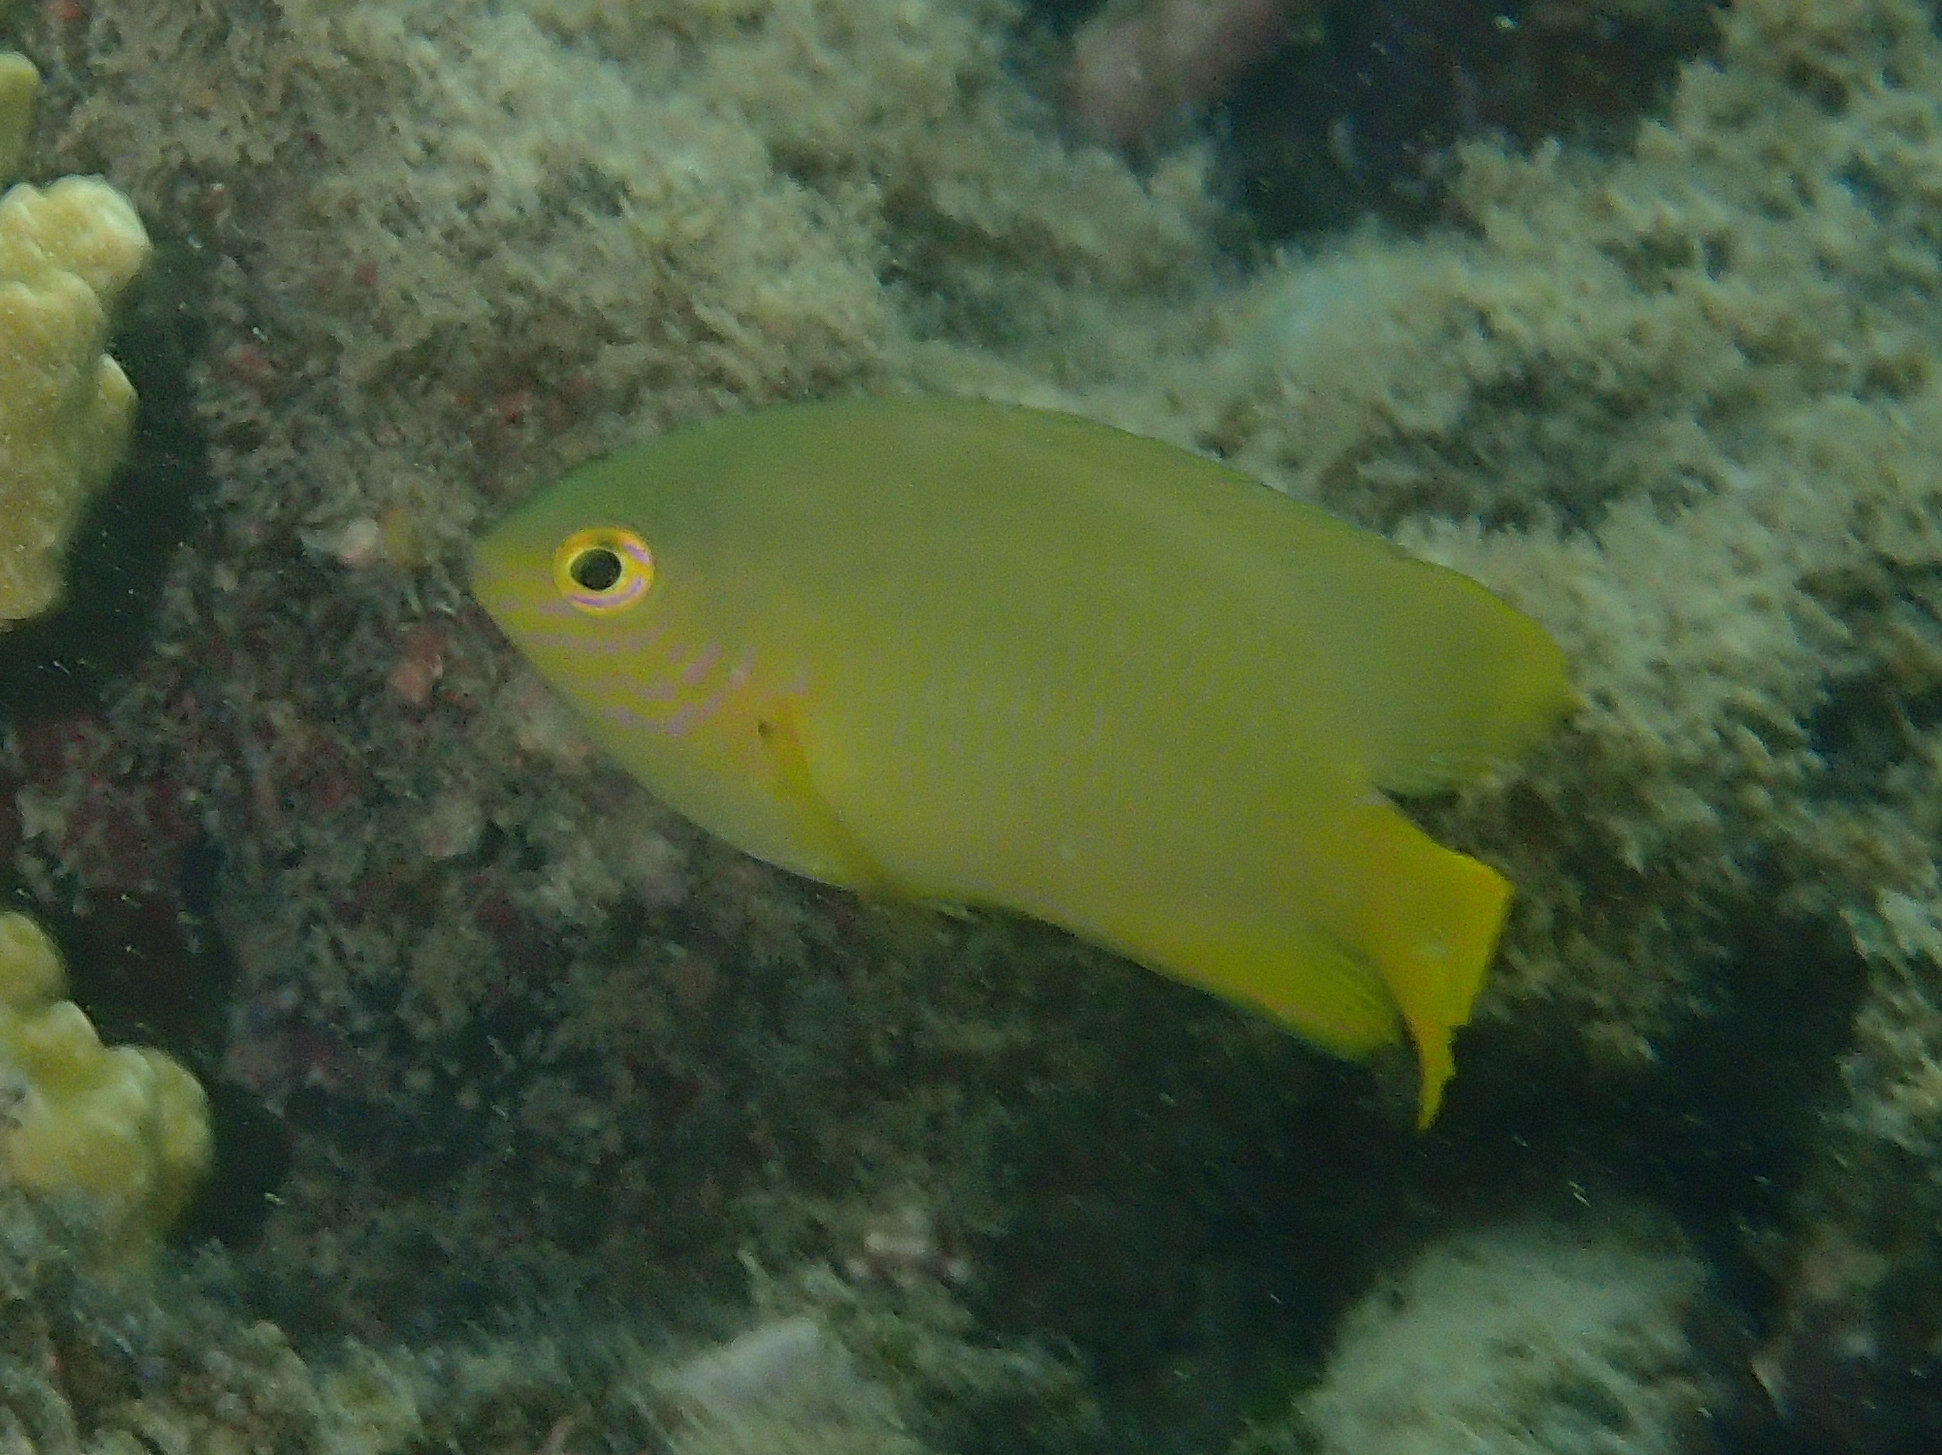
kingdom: Animalia
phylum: Chordata
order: Perciformes
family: Pomacentridae
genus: Pomacentrus
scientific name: Pomacentrus moluccensis
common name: Lemon damsel
